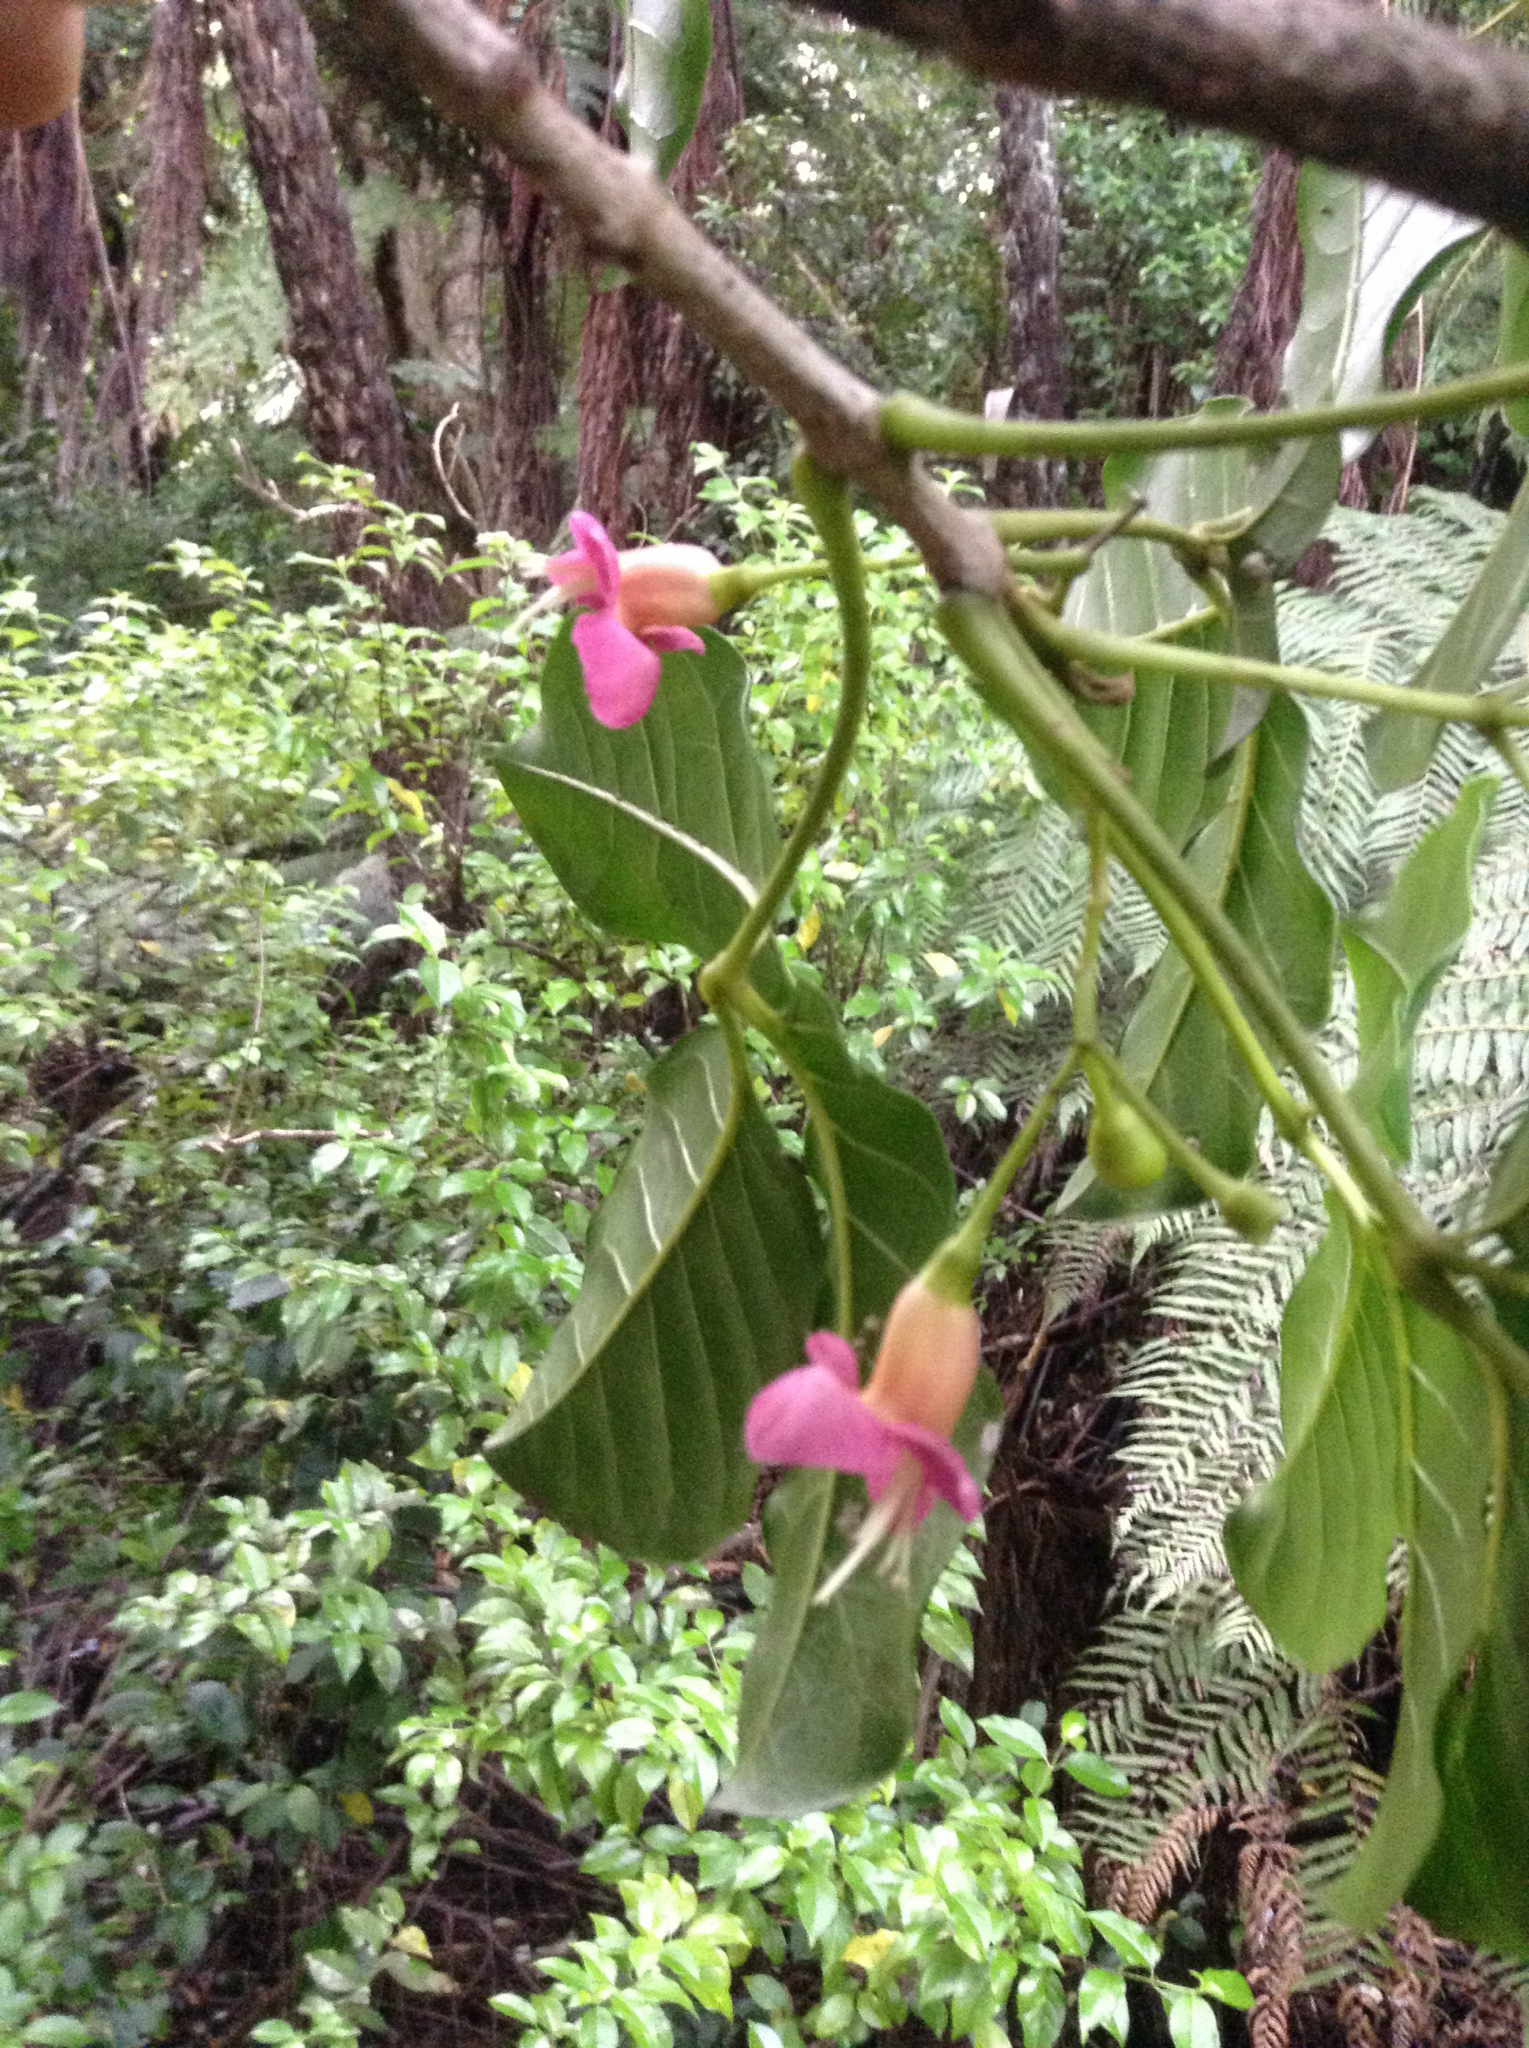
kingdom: Plantae
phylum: Tracheophyta
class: Magnoliopsida
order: Lamiales
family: Lamiaceae
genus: Vitex
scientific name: Vitex lucens
